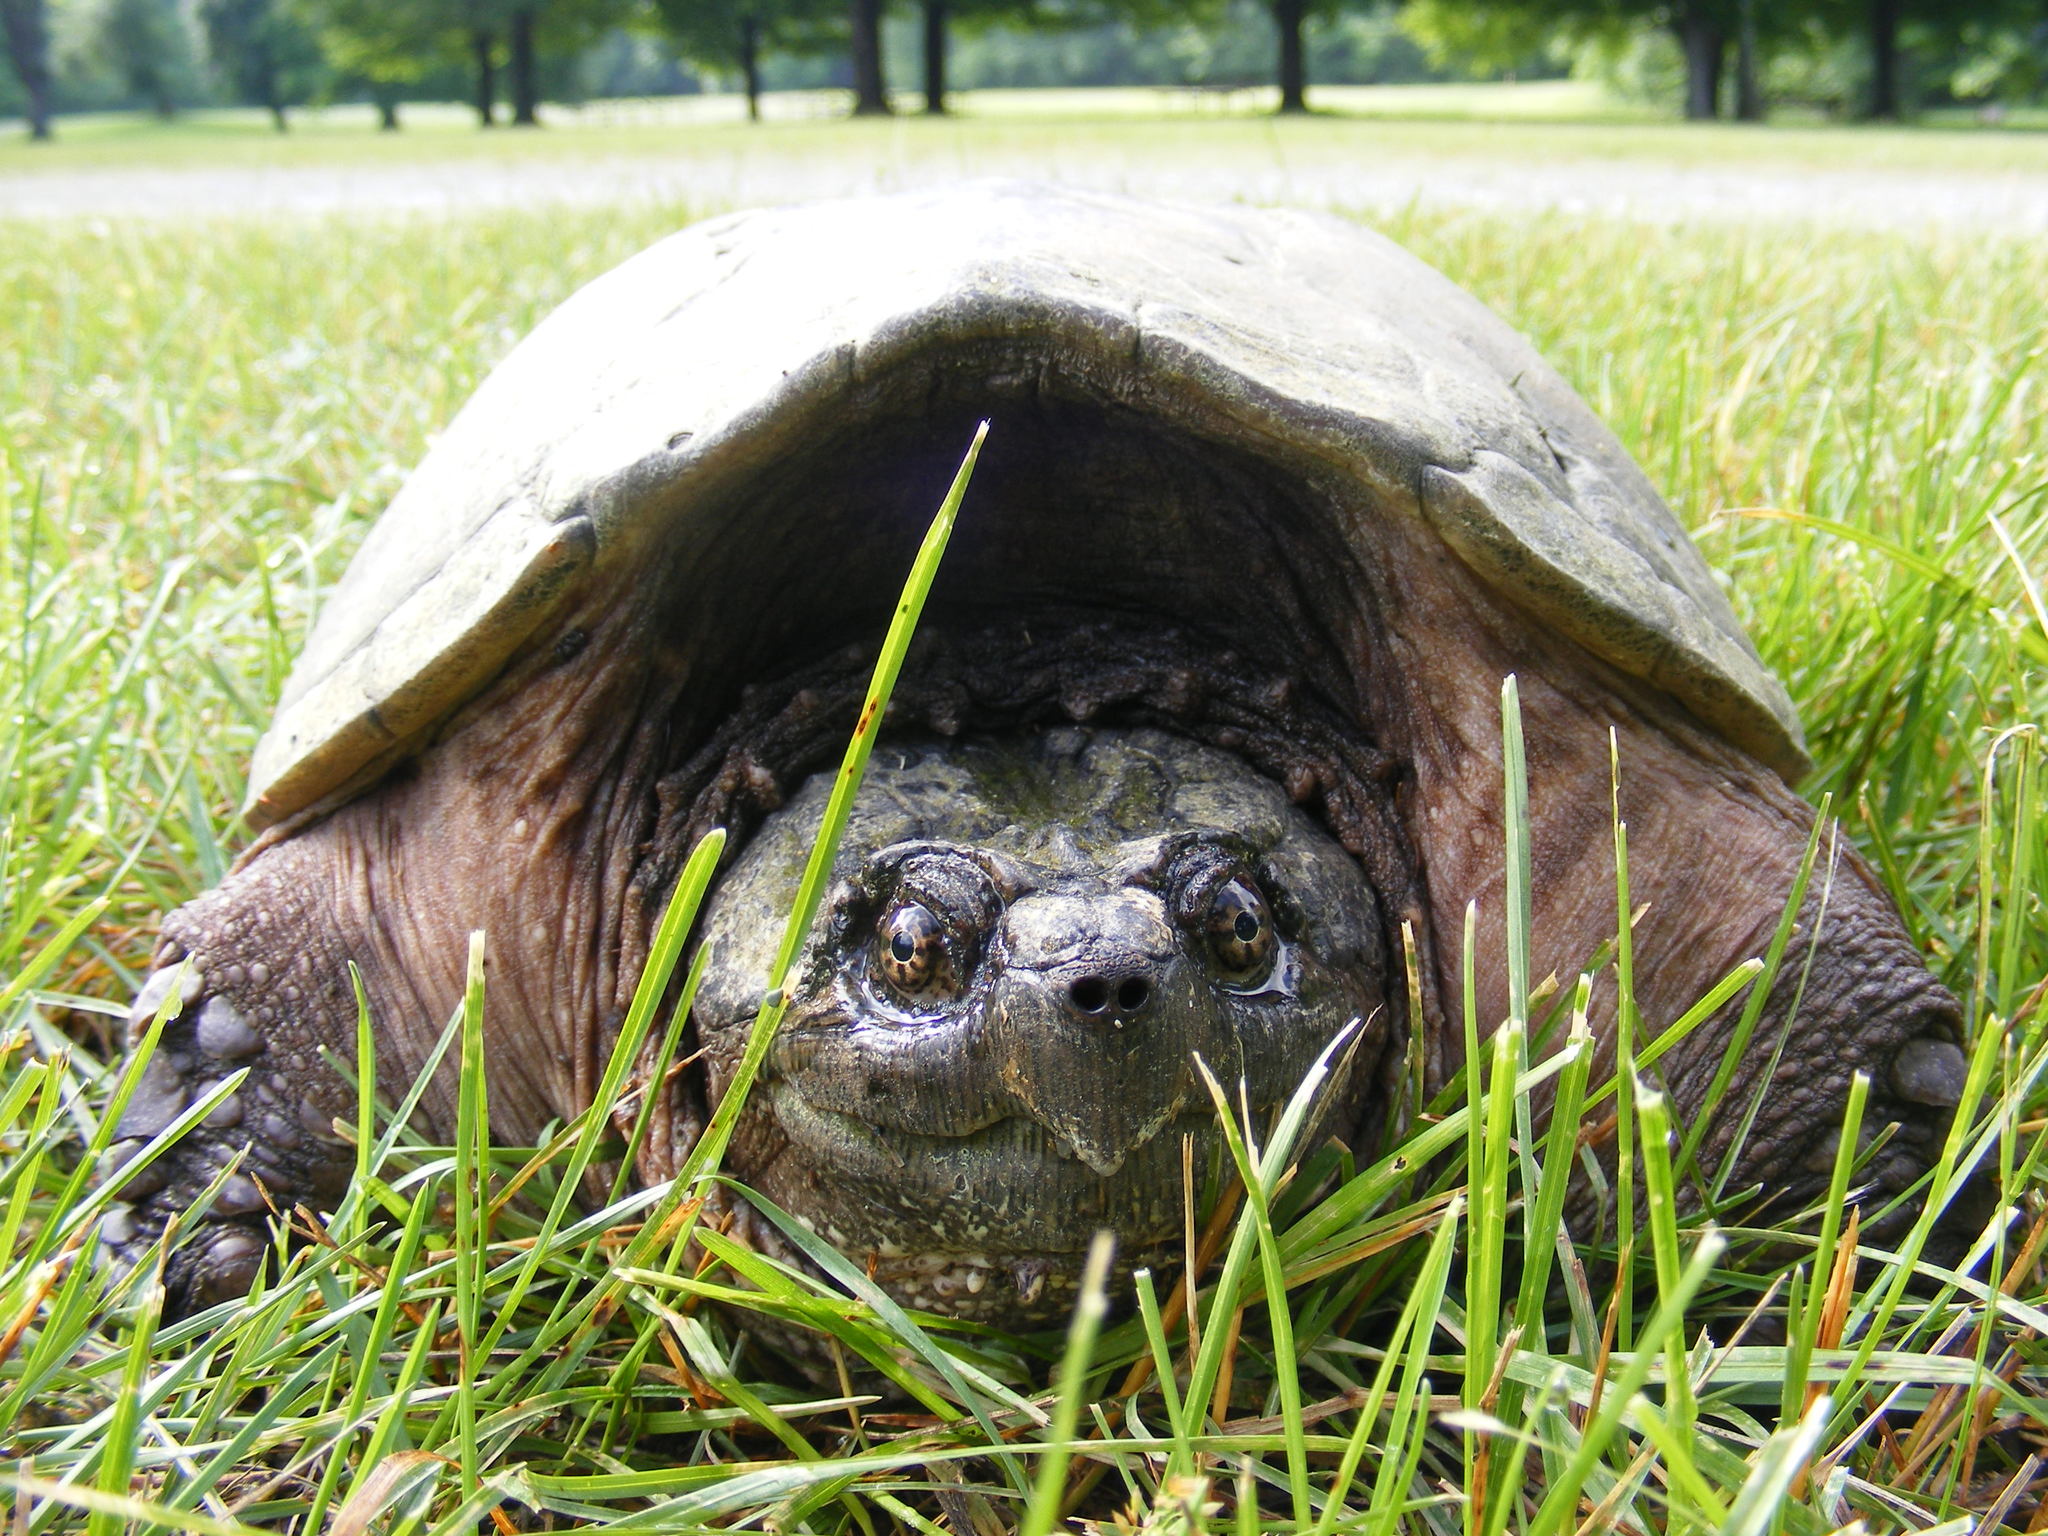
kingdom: Animalia
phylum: Chordata
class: Testudines
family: Chelydridae
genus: Chelydra
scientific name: Chelydra serpentina
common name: Common snapping turtle
